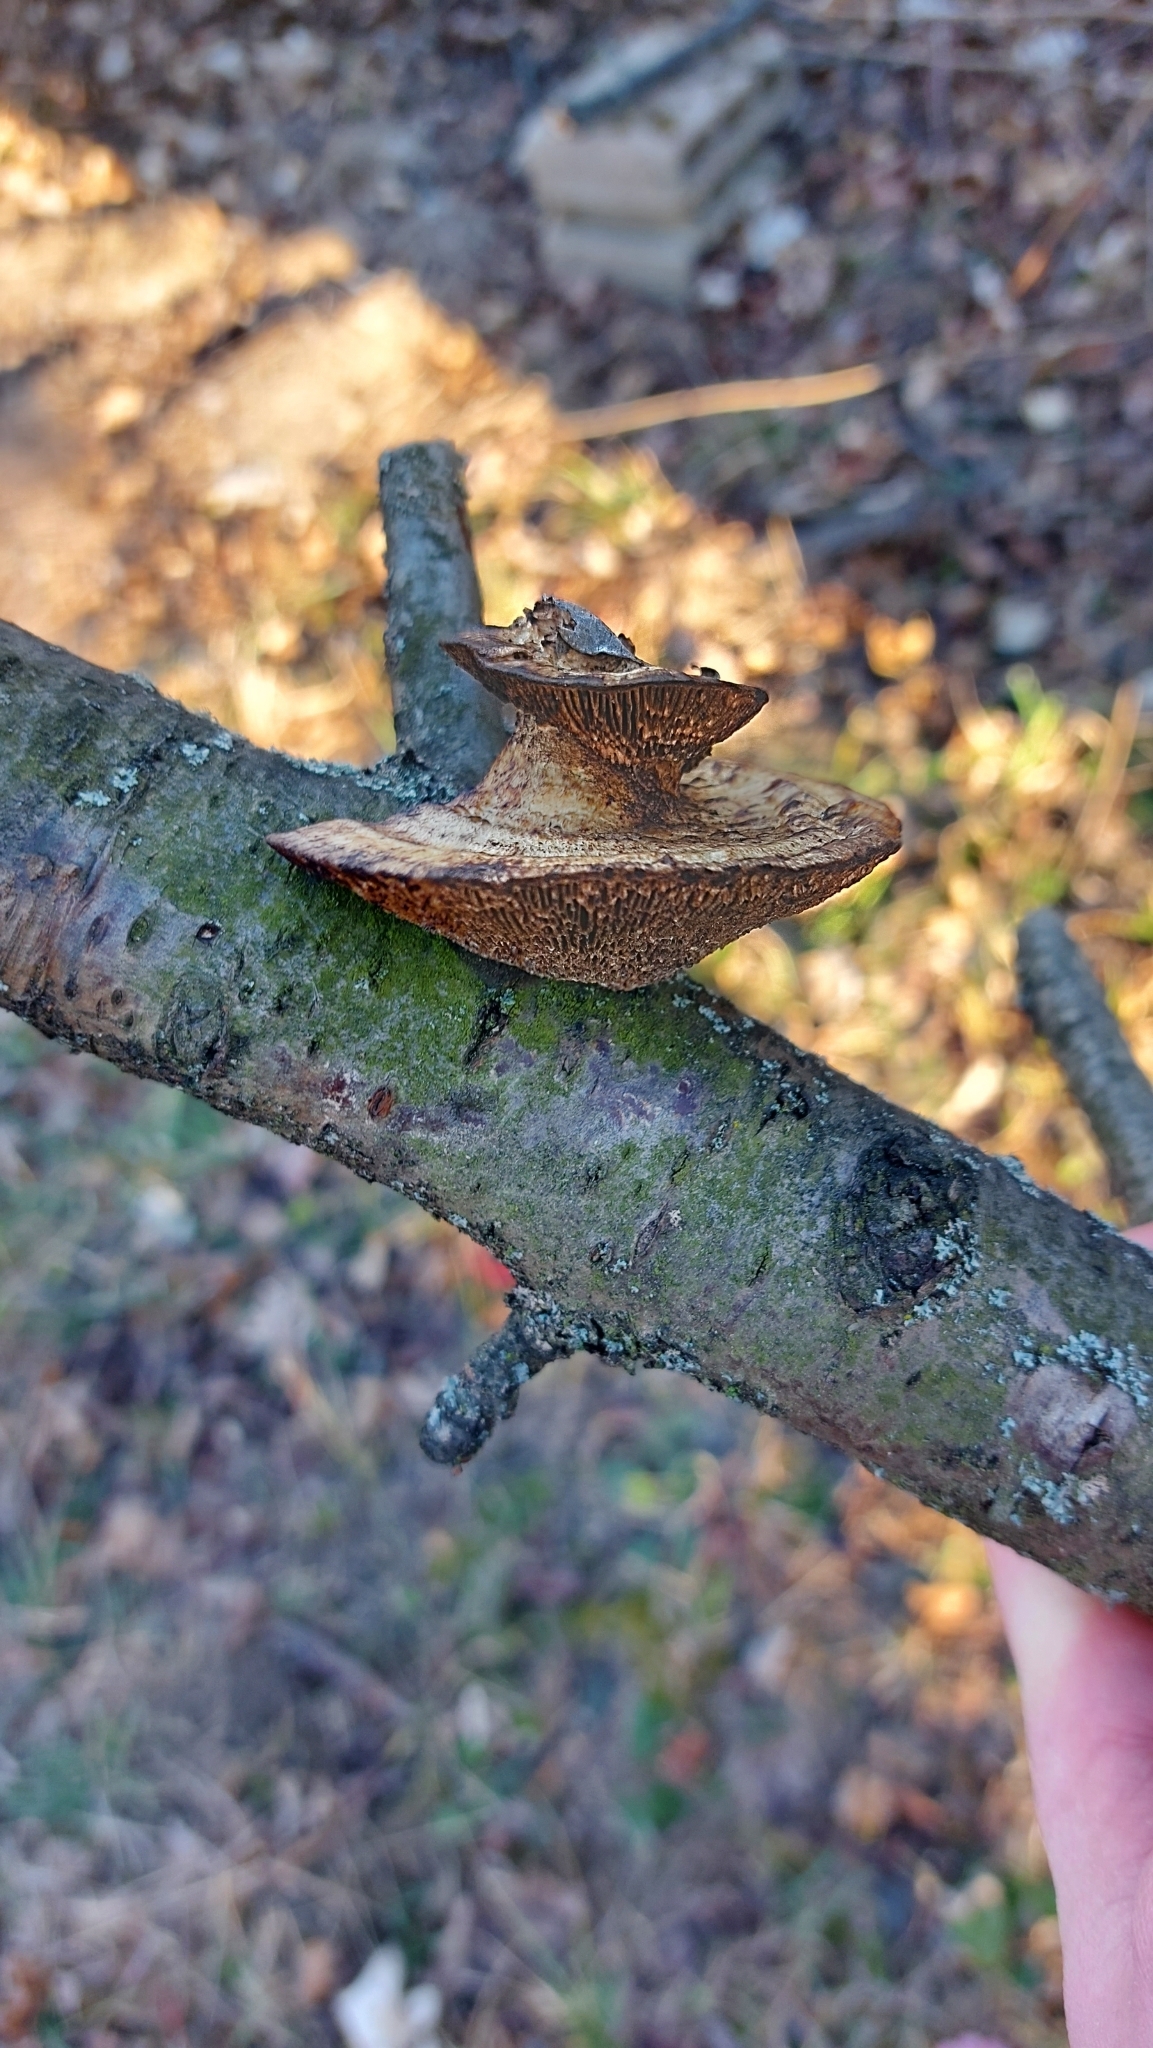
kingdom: Fungi
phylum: Basidiomycota
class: Agaricomycetes
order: Polyporales
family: Polyporaceae
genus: Daedaleopsis
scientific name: Daedaleopsis confragosa
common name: Blushing bracket
